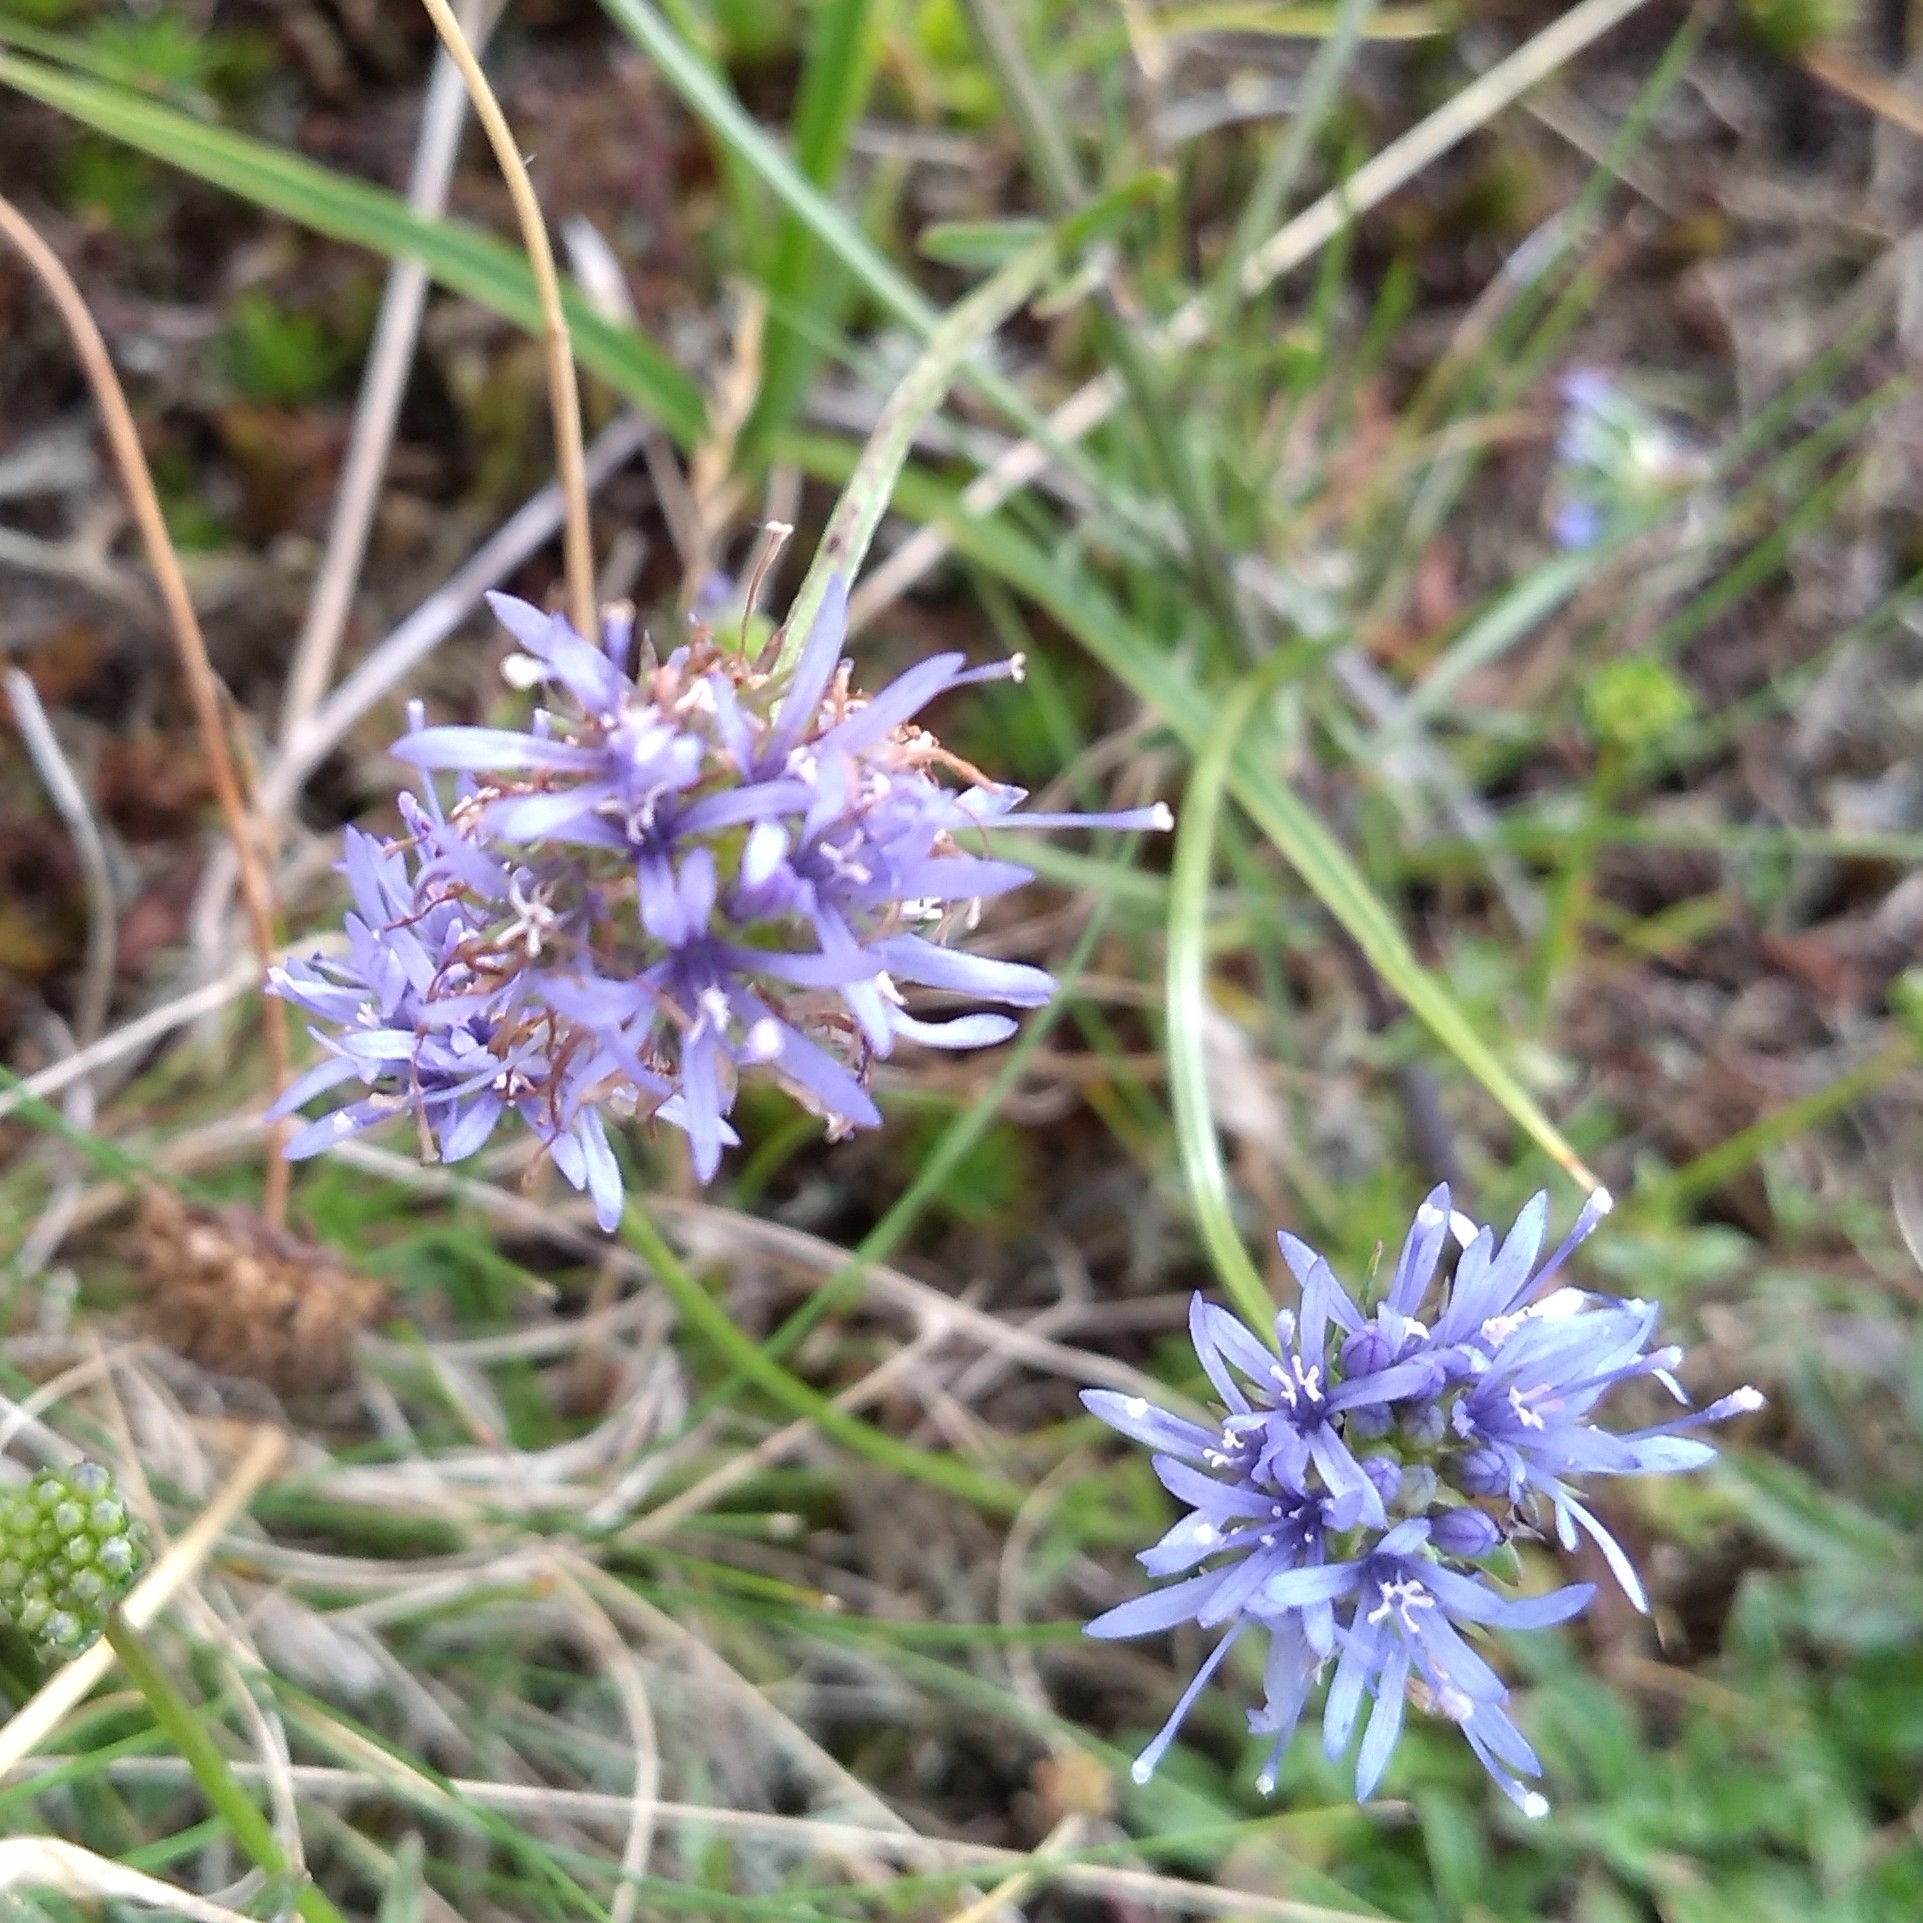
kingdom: Plantae
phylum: Tracheophyta
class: Magnoliopsida
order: Asterales
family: Campanulaceae
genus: Jasione
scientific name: Jasione montana
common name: Sheep's-bit
